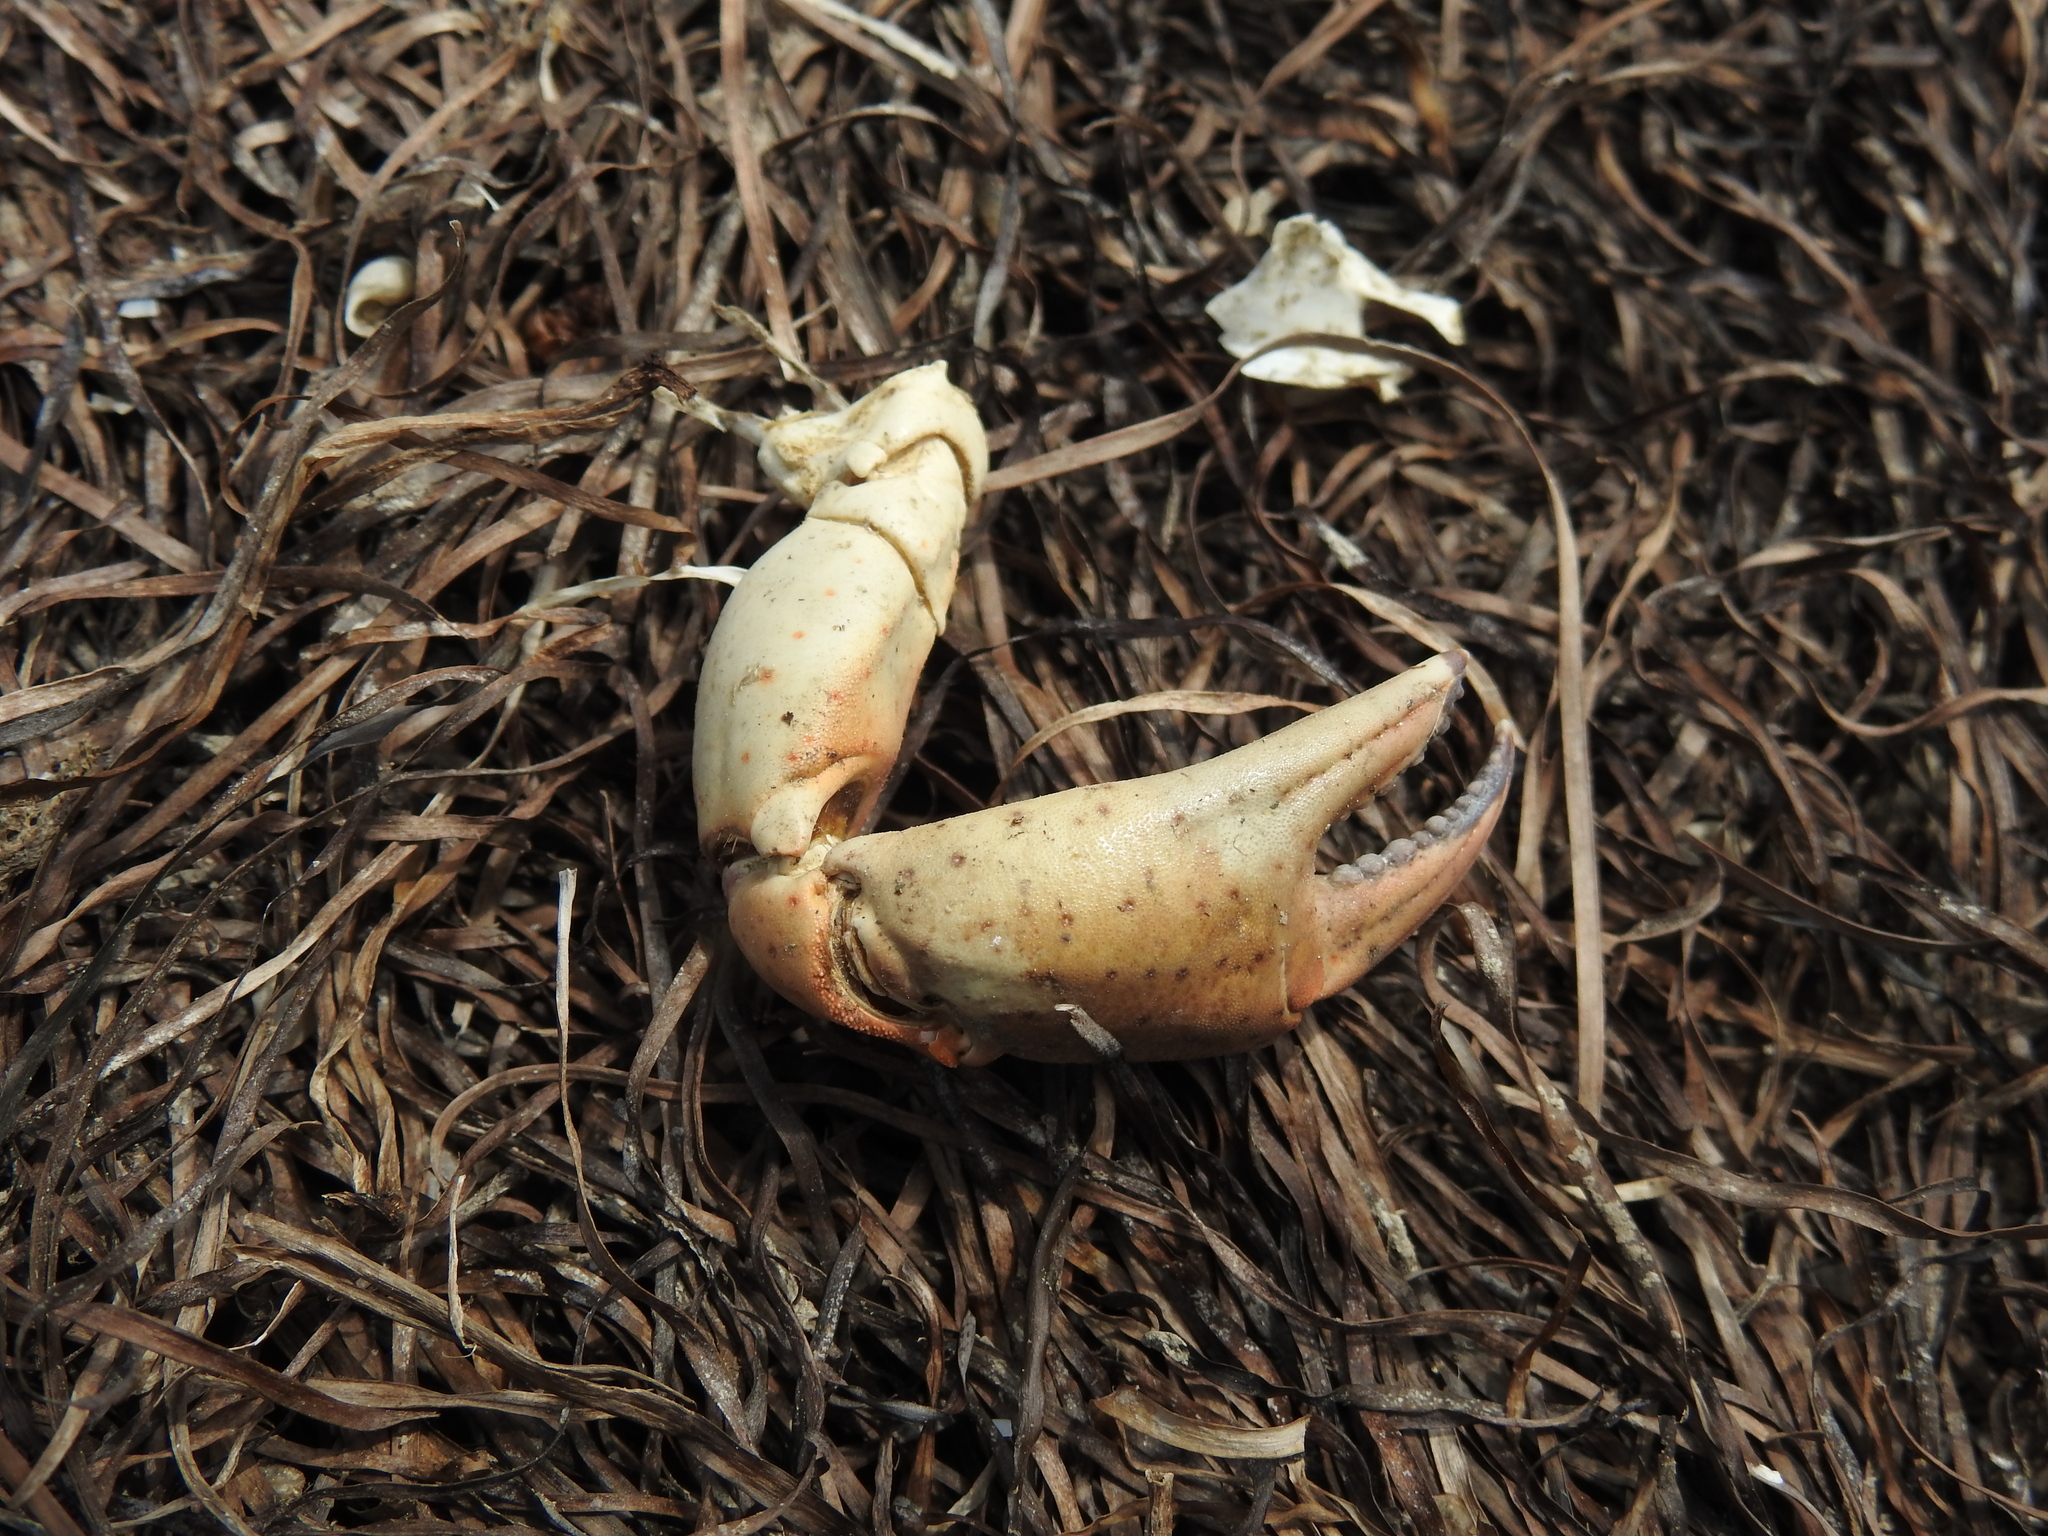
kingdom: Animalia
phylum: Arthropoda
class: Malacostraca
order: Decapoda
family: Carcinidae
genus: Carcinus
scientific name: Carcinus aestuarii
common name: Mediterranean green crab
